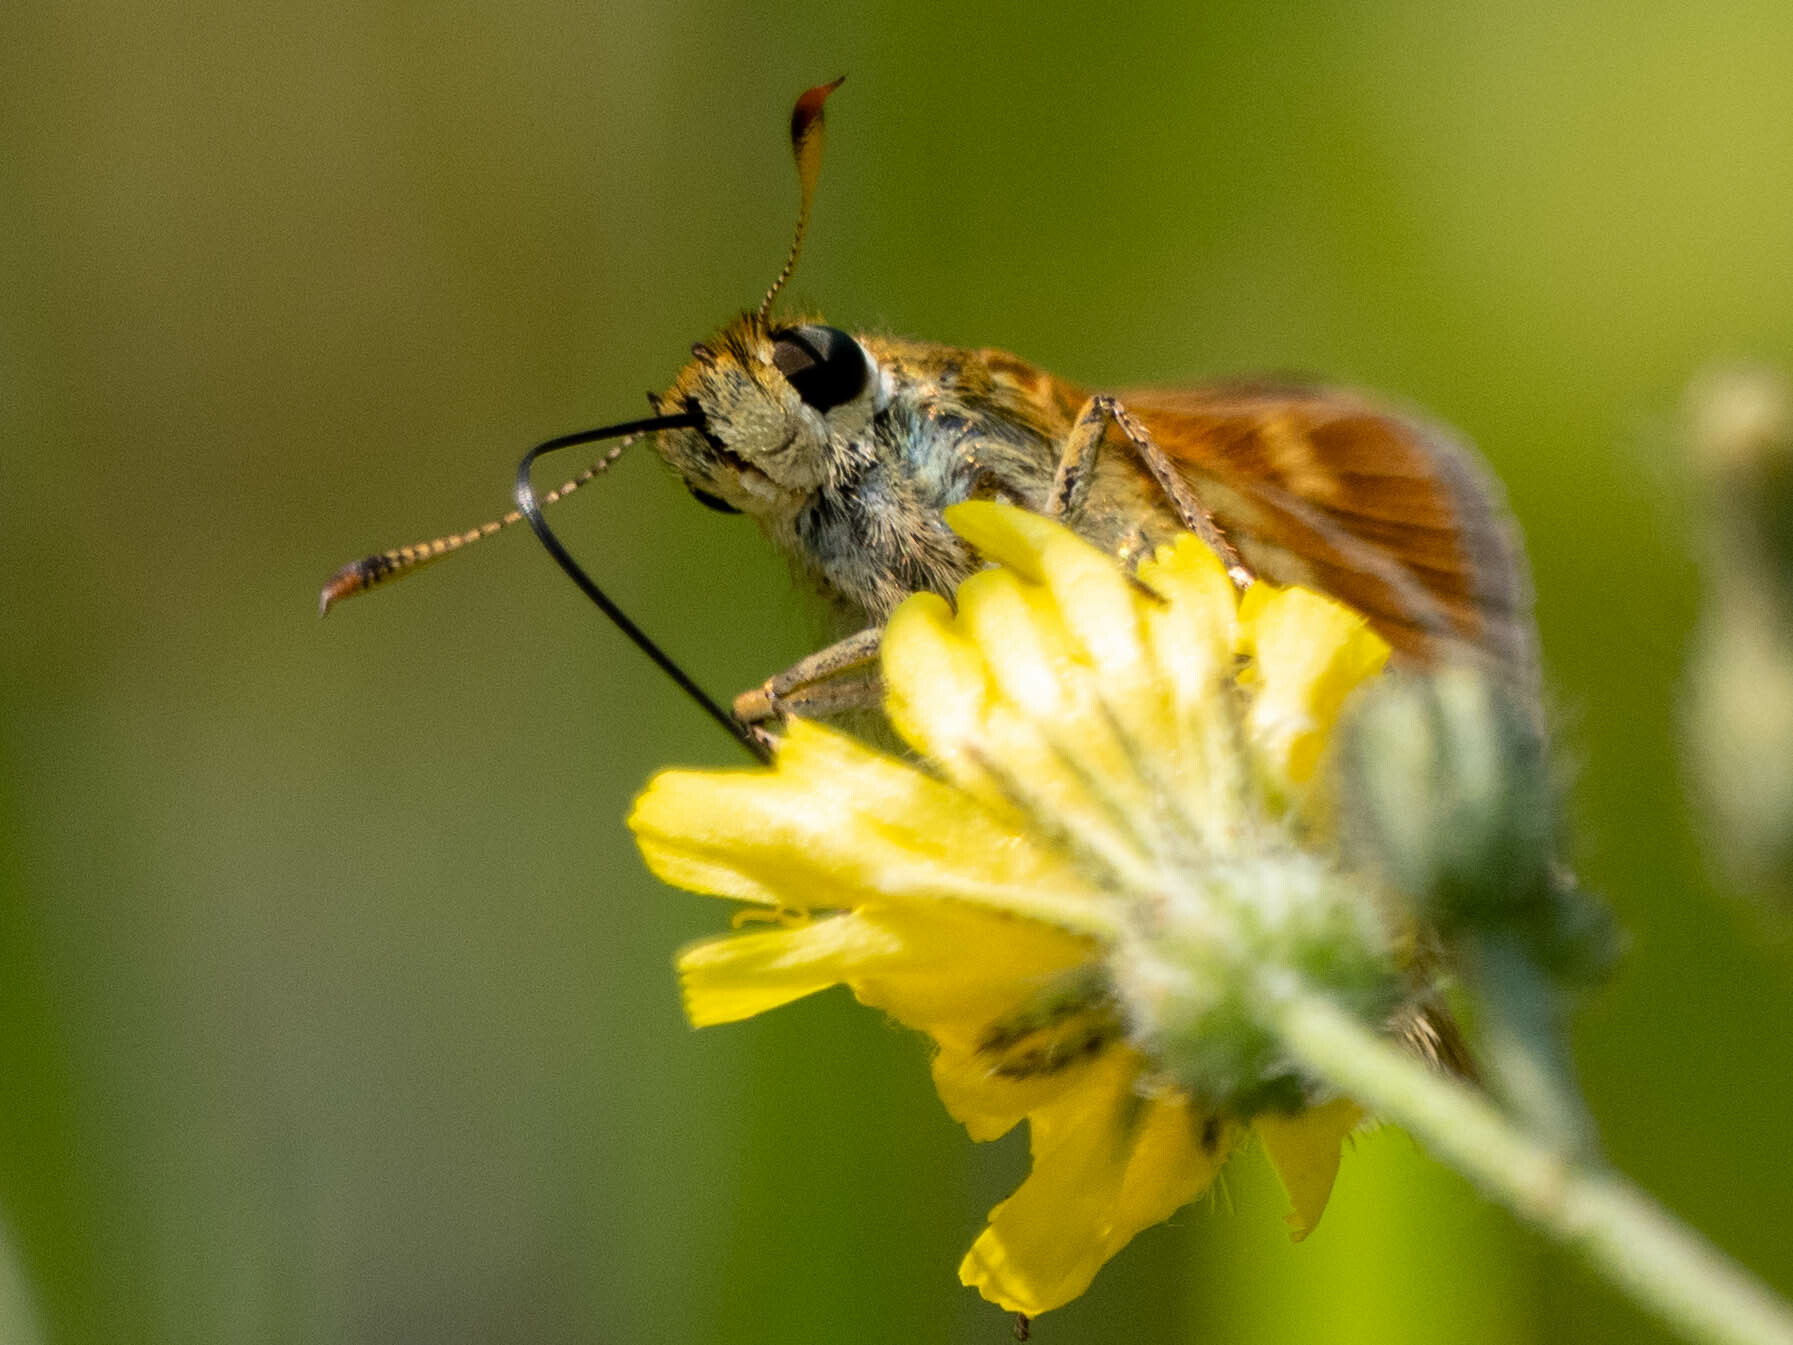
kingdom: Animalia
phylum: Arthropoda
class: Insecta
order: Lepidoptera
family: Hesperiidae
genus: Polites
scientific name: Polites mystic
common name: Long dash
